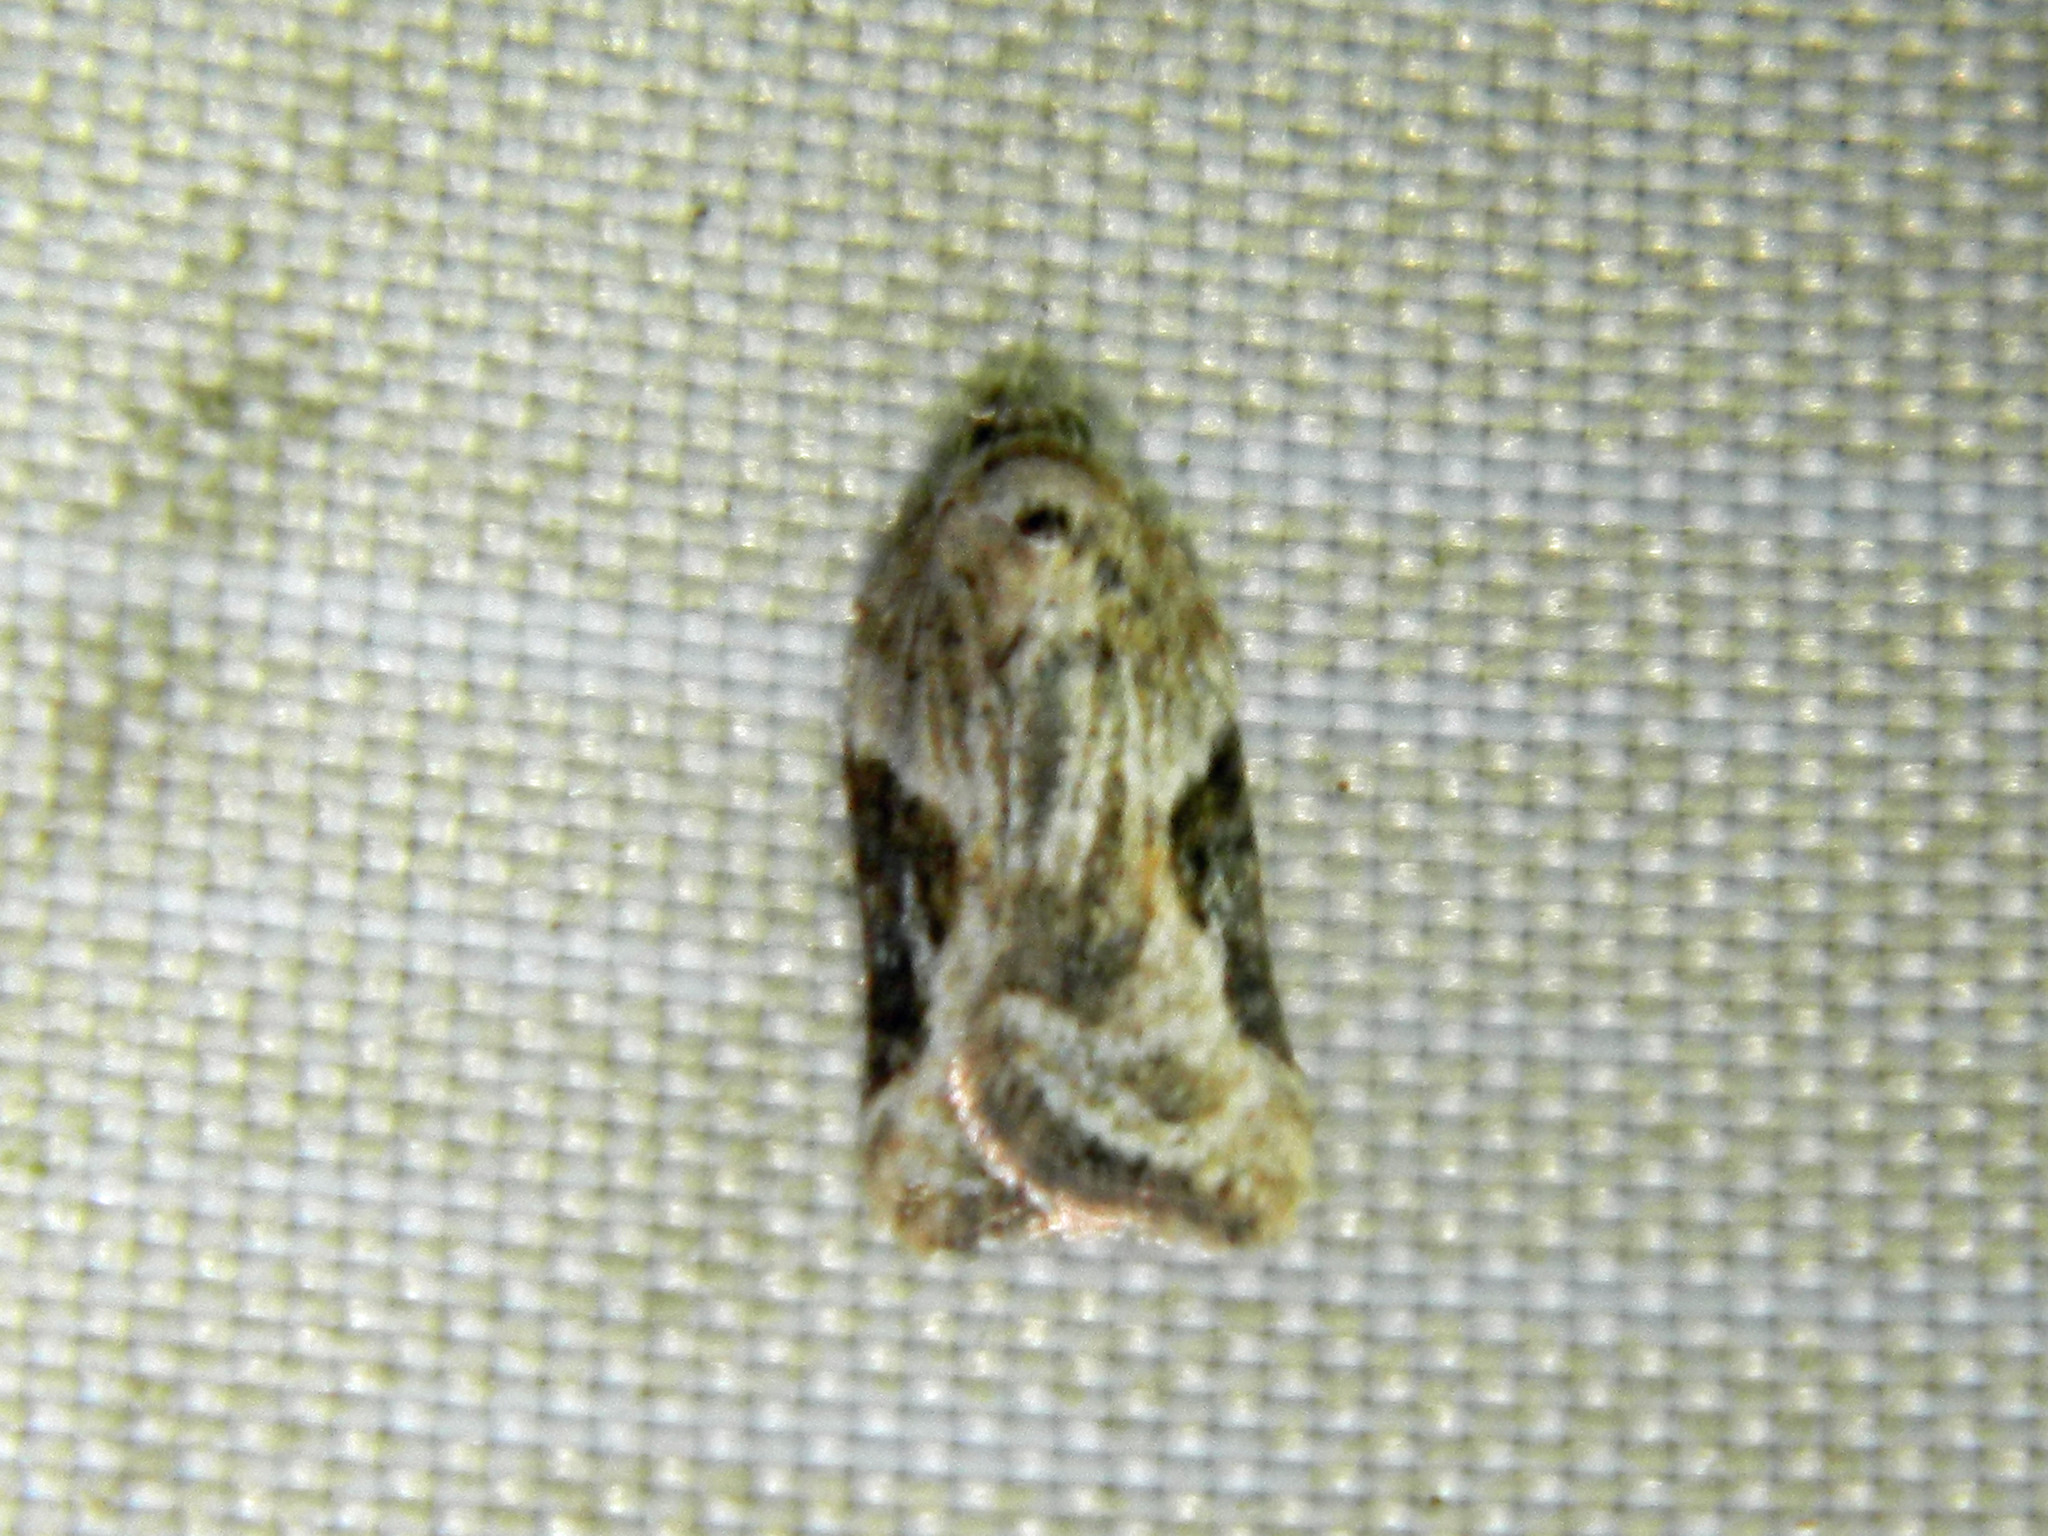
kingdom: Animalia
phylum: Arthropoda
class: Insecta
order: Lepidoptera
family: Tortricidae
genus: Acleris
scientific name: Acleris forbesana
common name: Forbes' acleris moth
